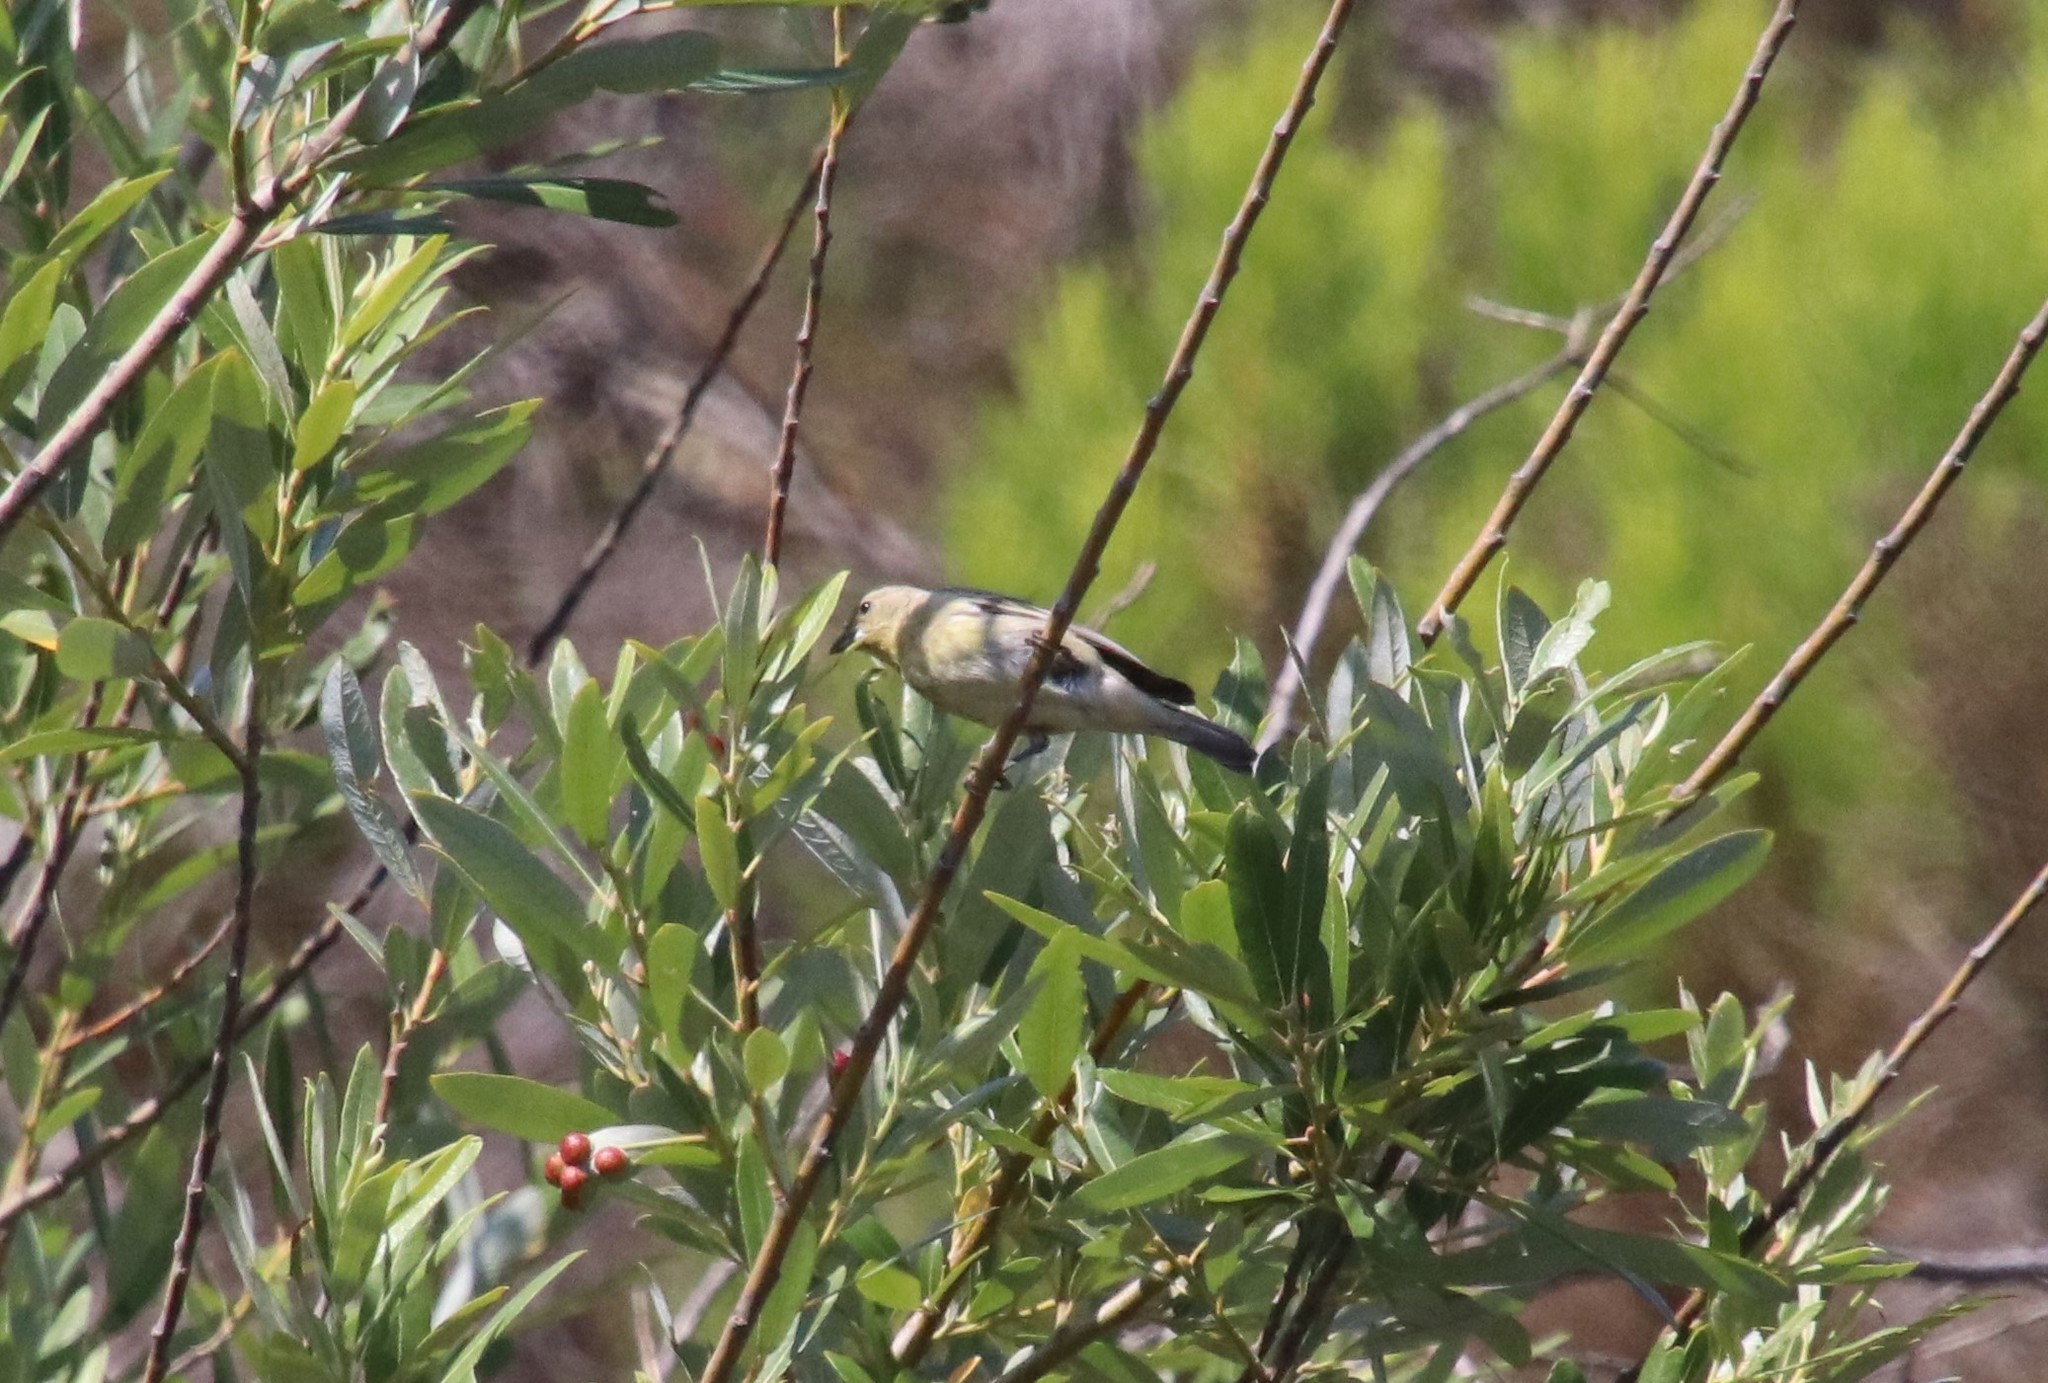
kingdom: Animalia
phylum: Chordata
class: Aves
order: Passeriformes
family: Fringillidae
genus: Spinus
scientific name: Spinus psaltria
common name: Lesser goldfinch
